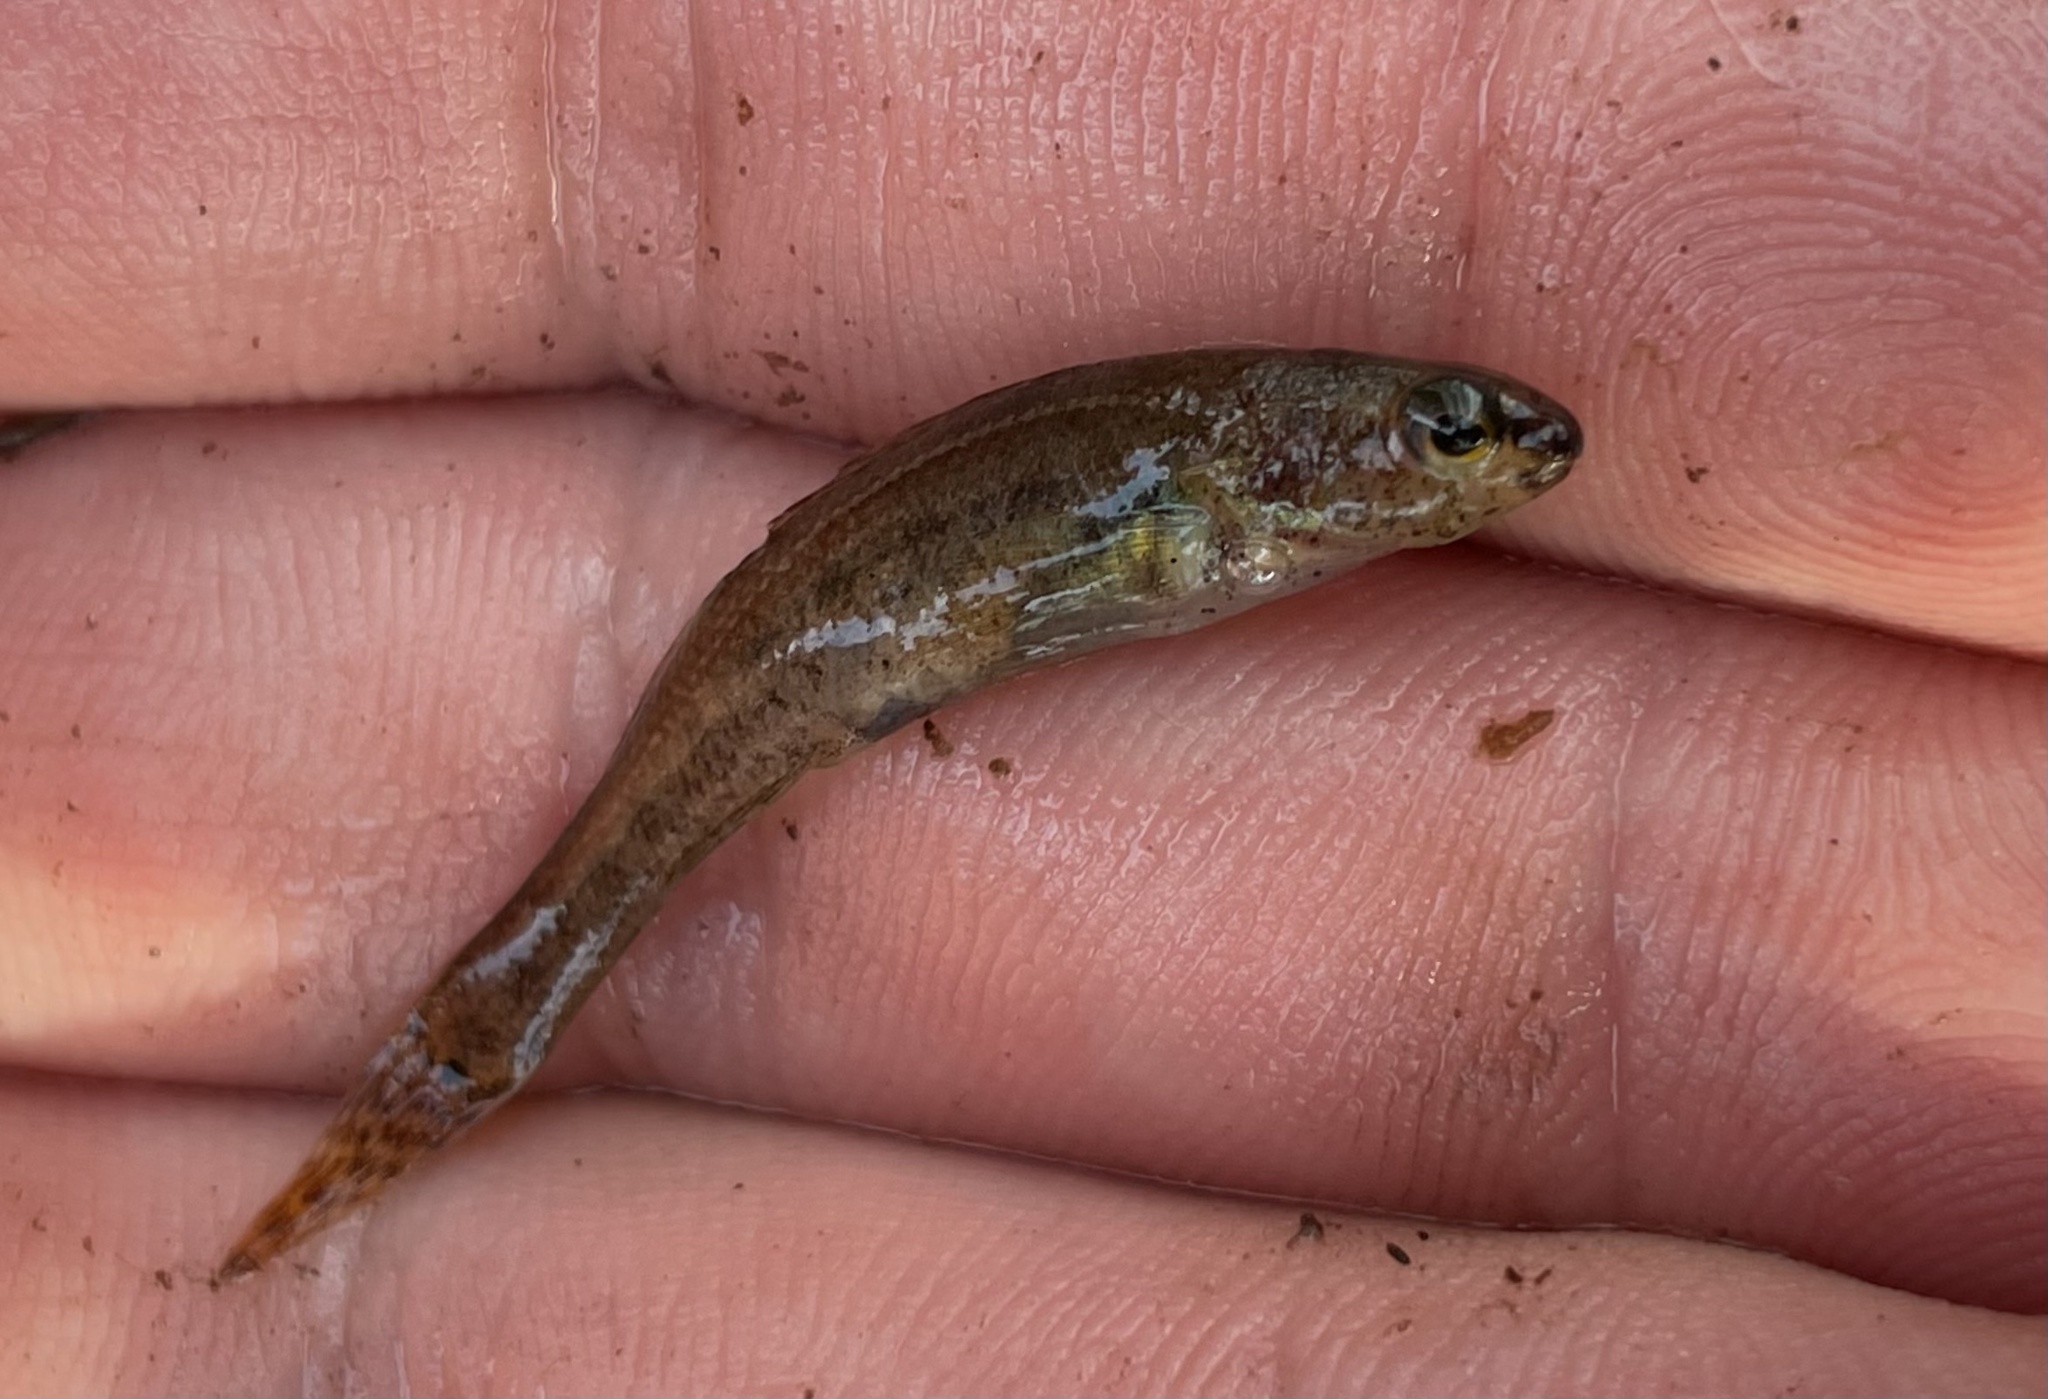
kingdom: Animalia
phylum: Chordata
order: Perciformes
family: Percidae
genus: Etheostoma
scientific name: Etheostoma serrifer
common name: Sawcheek darter
